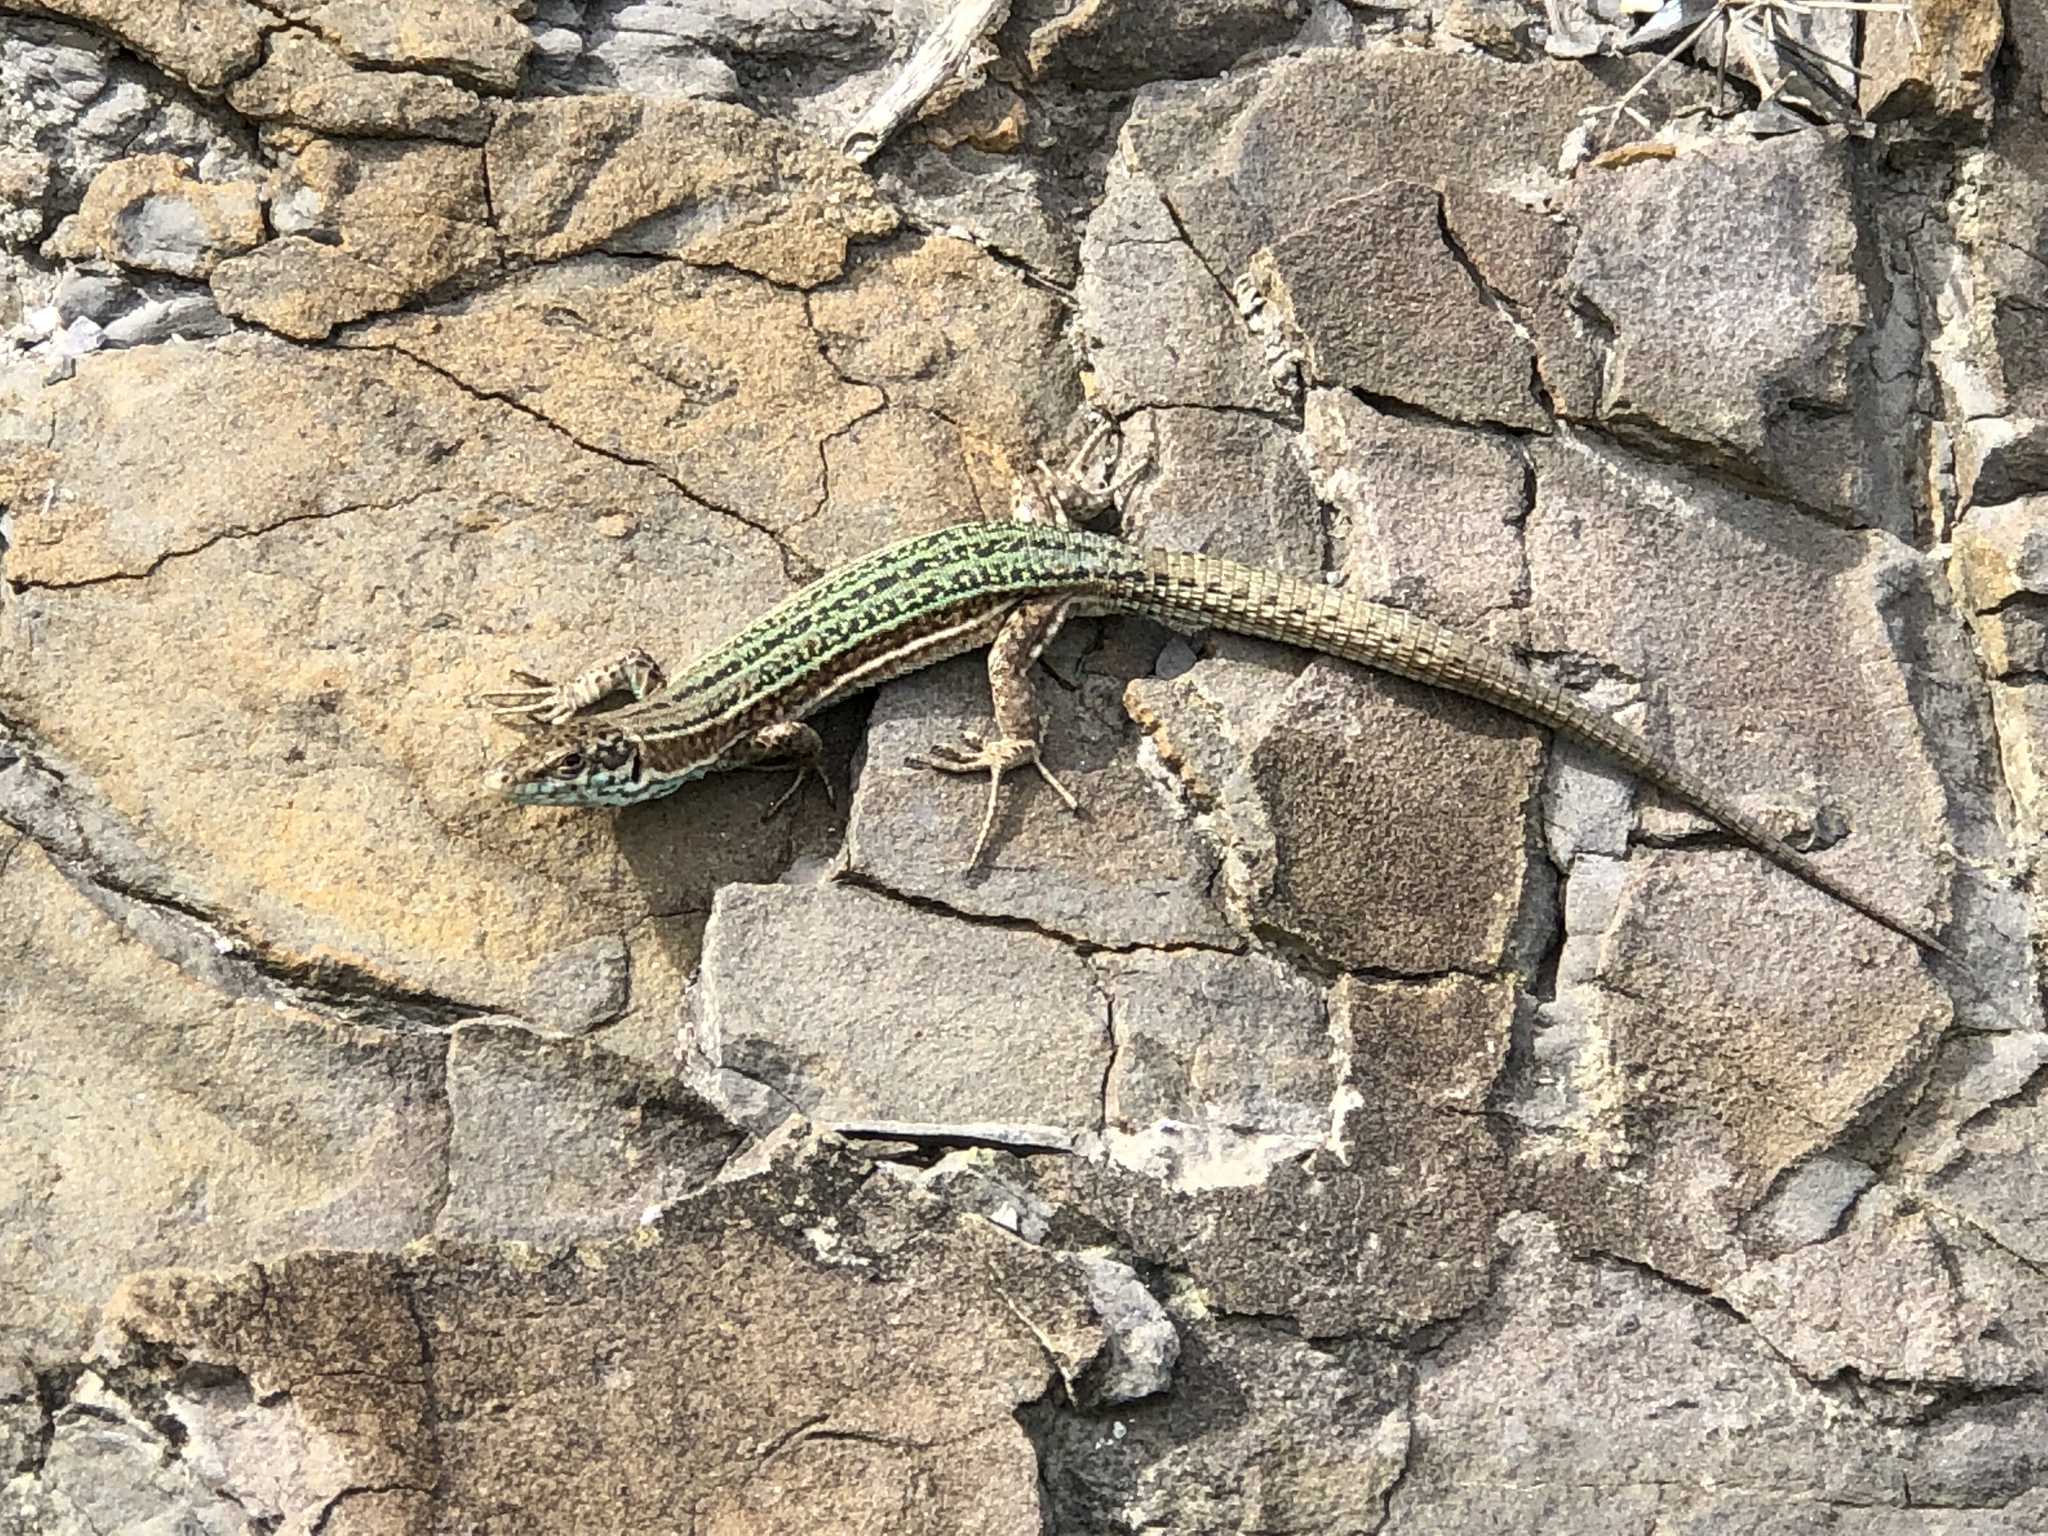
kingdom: Animalia
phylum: Chordata
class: Squamata
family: Lacertidae
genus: Podarcis
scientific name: Podarcis pityusensis
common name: Ibiza wall lizard
